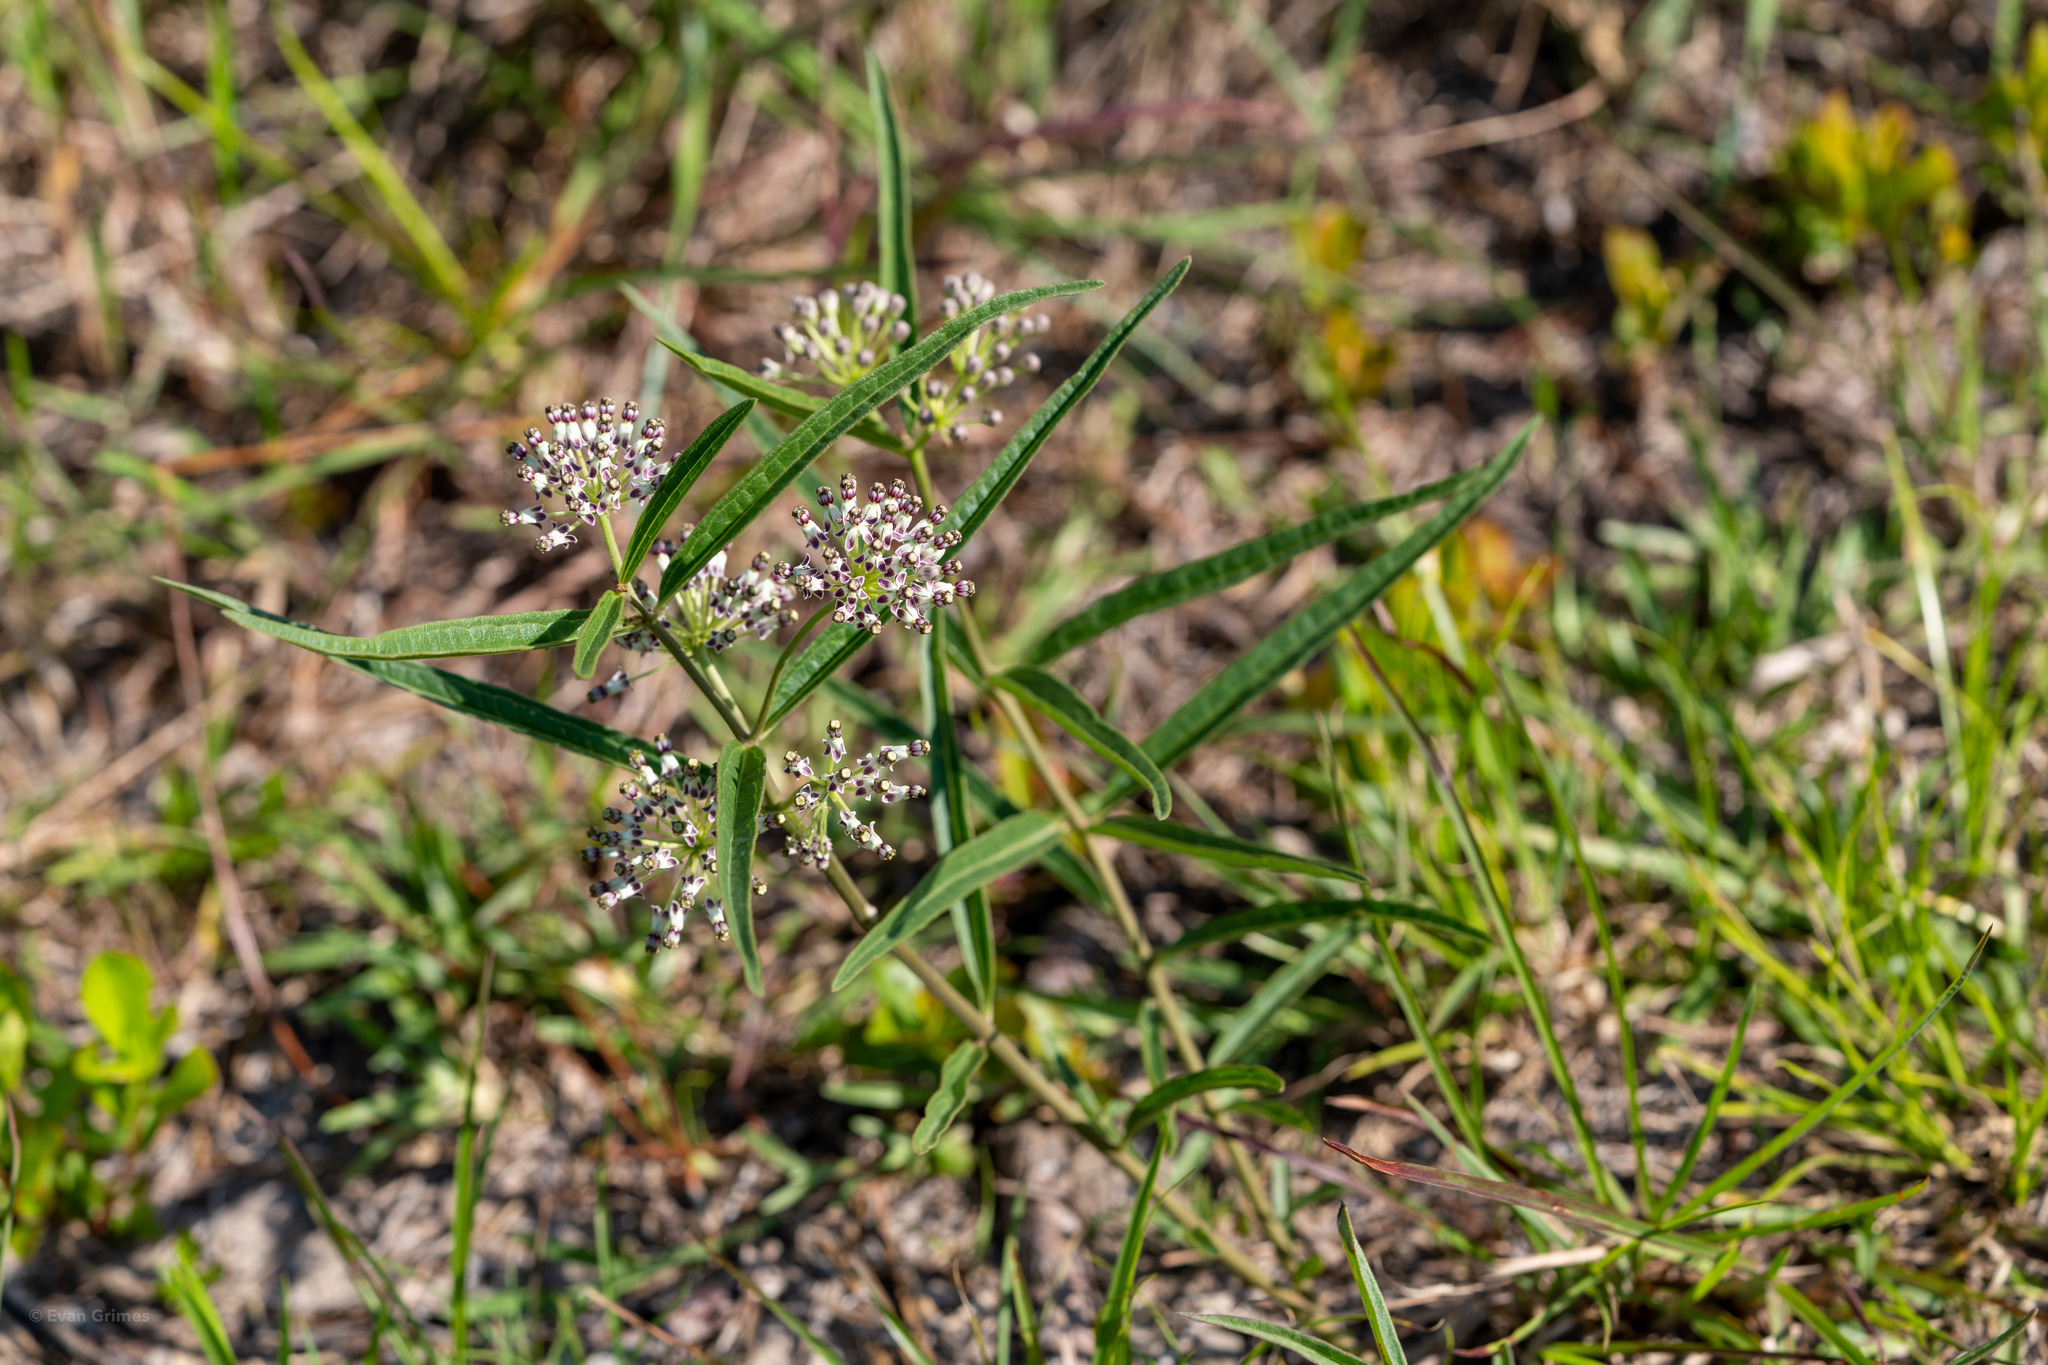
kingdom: Plantae
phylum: Tracheophyta
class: Magnoliopsida
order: Gentianales
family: Apocynaceae
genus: Asclepias
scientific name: Asclepias longifolia
